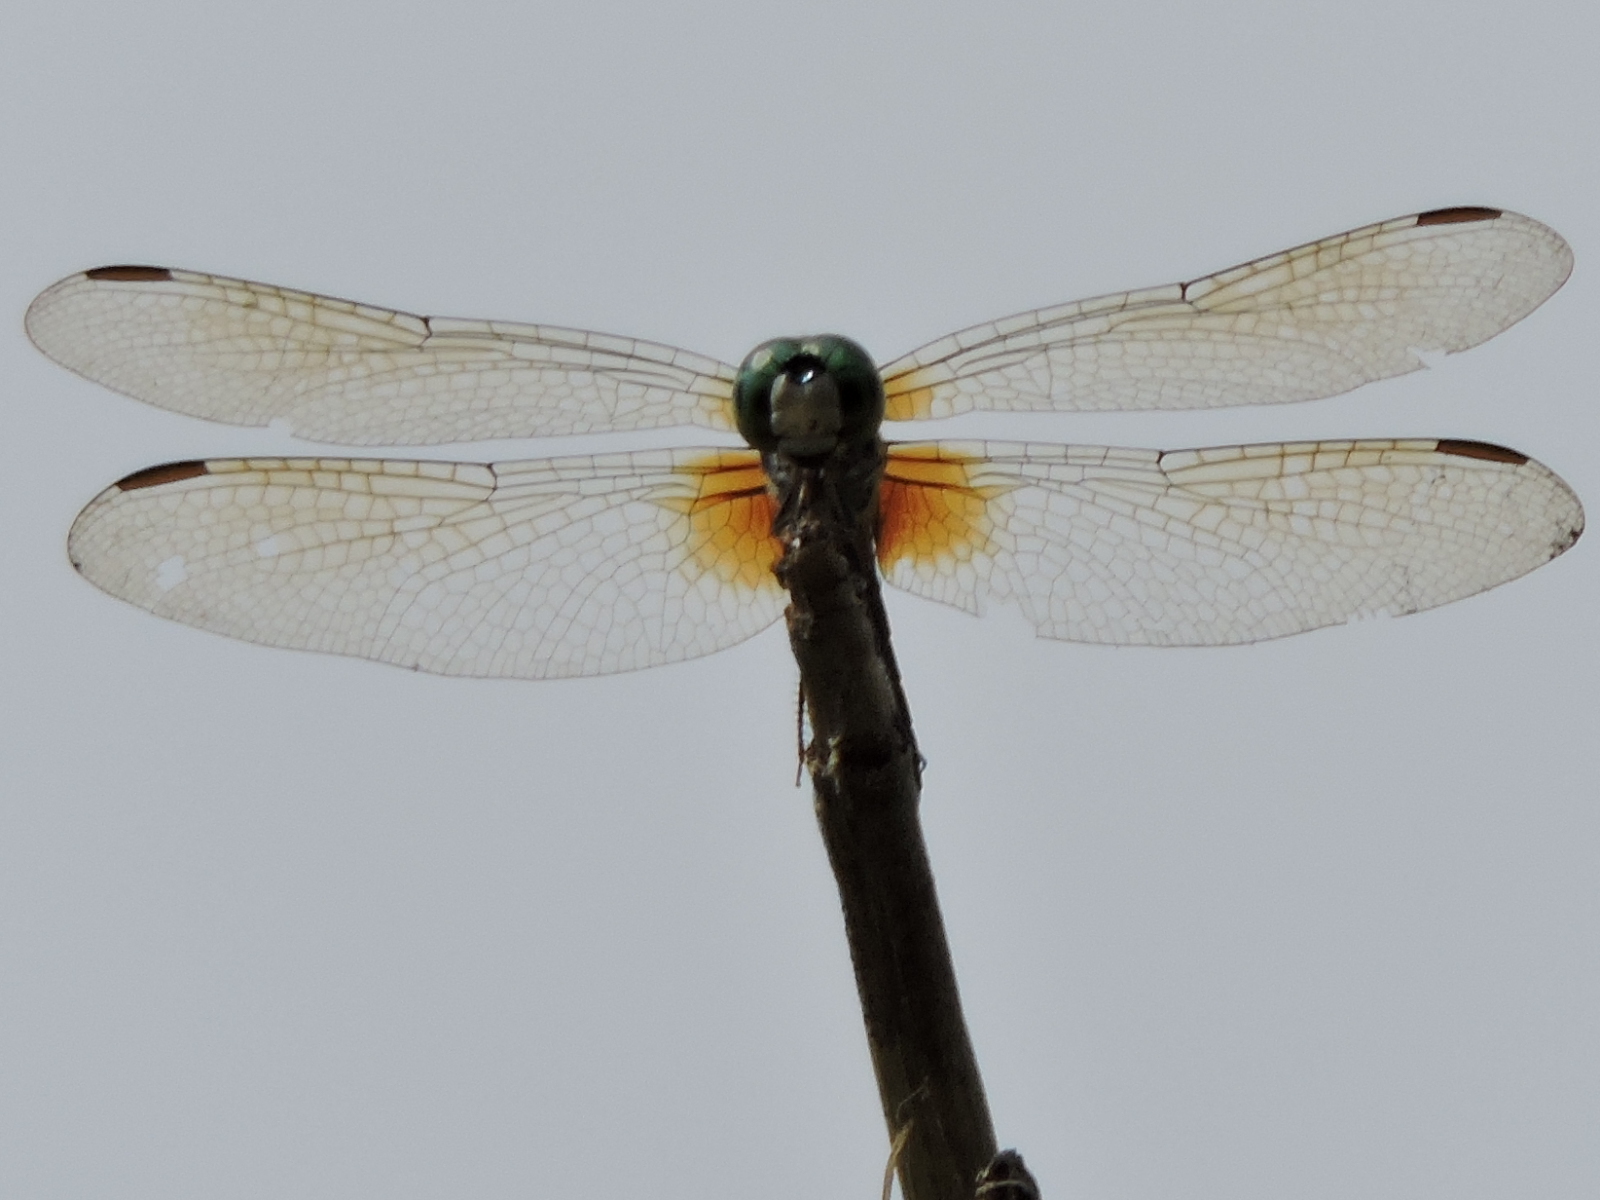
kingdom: Animalia
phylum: Arthropoda
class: Insecta
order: Odonata
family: Libellulidae
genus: Pachydiplax
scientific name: Pachydiplax longipennis
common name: Blue dasher
